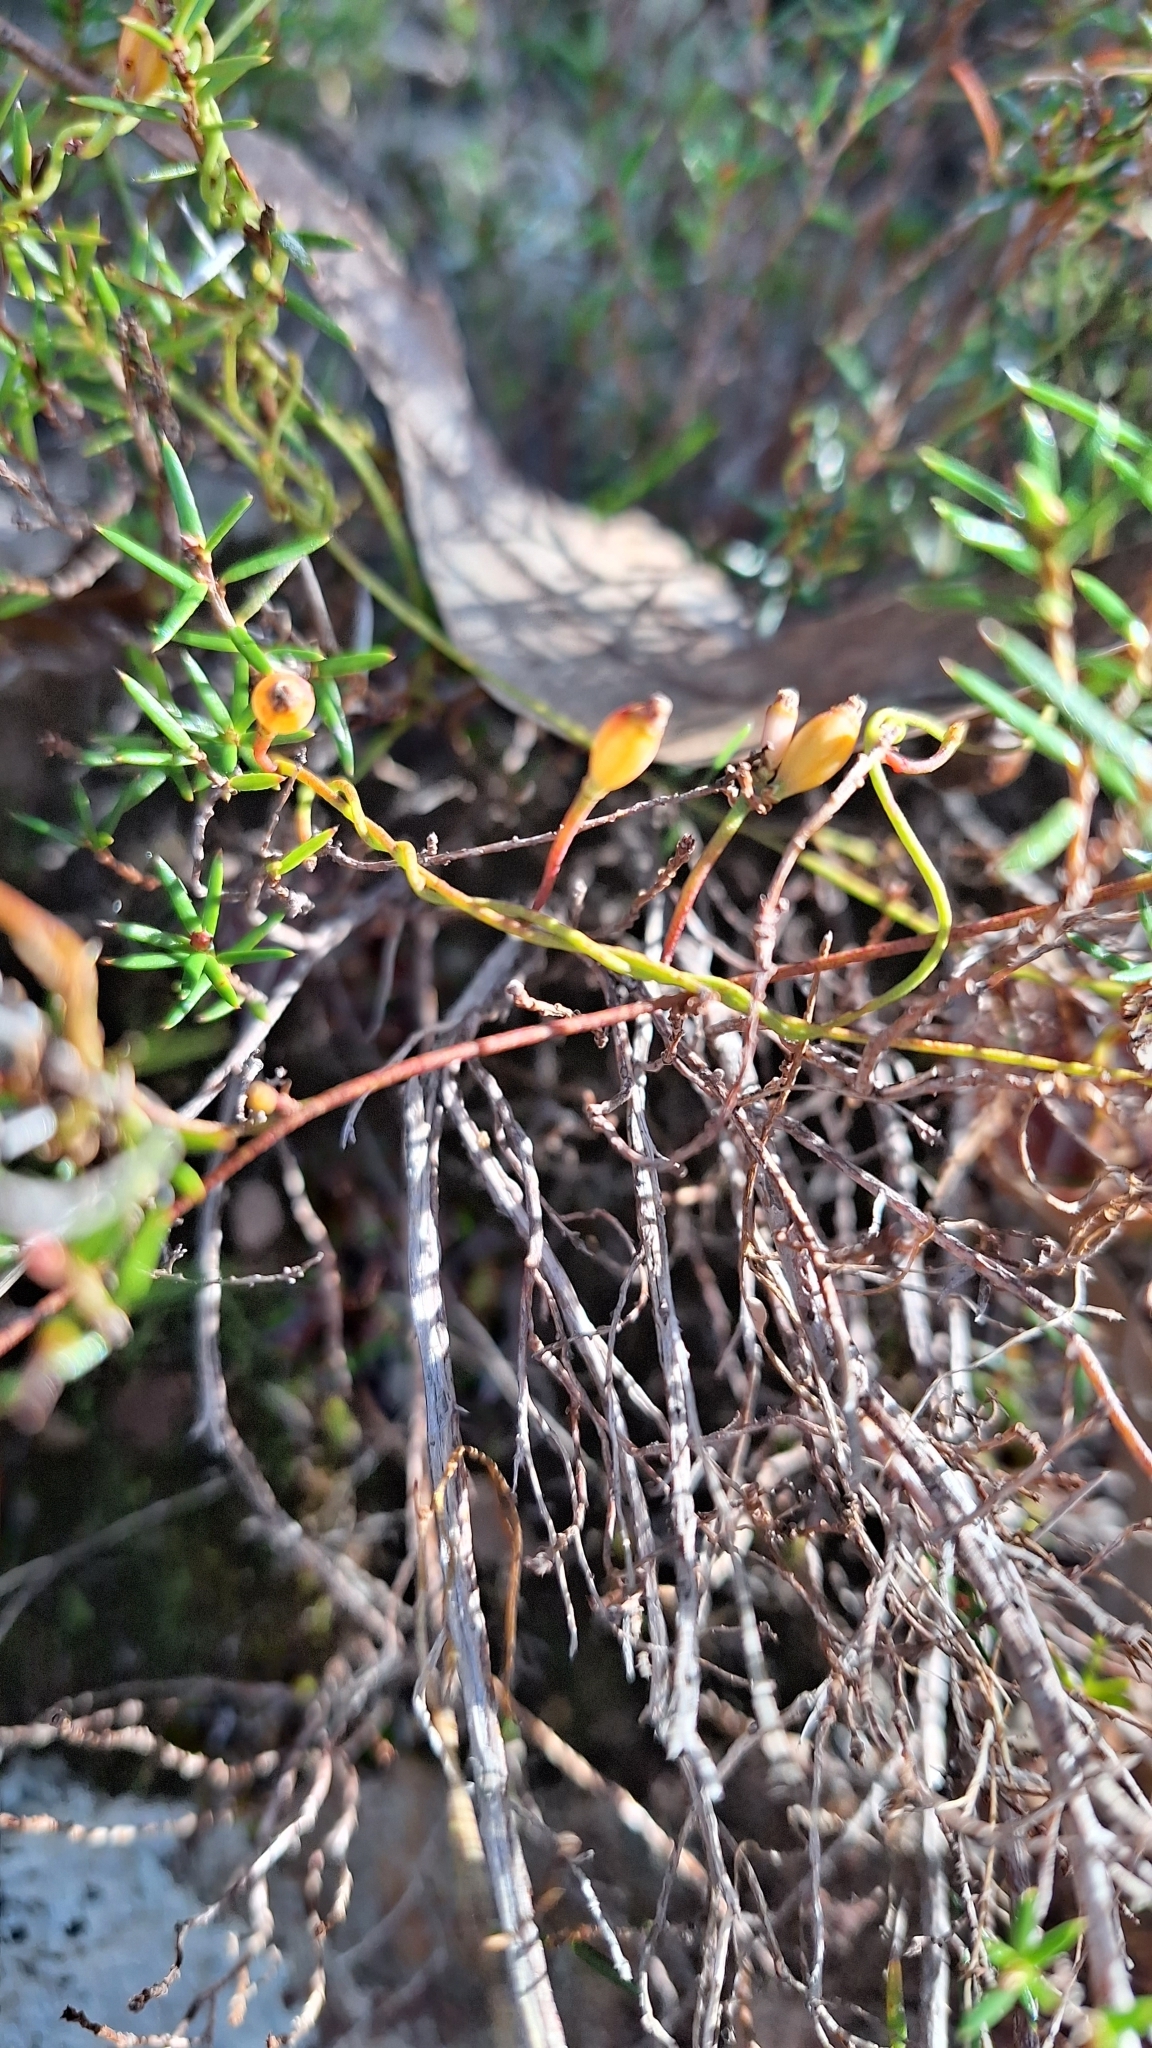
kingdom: Plantae
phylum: Tracheophyta
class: Magnoliopsida
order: Laurales
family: Lauraceae
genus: Cassytha
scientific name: Cassytha glabella
